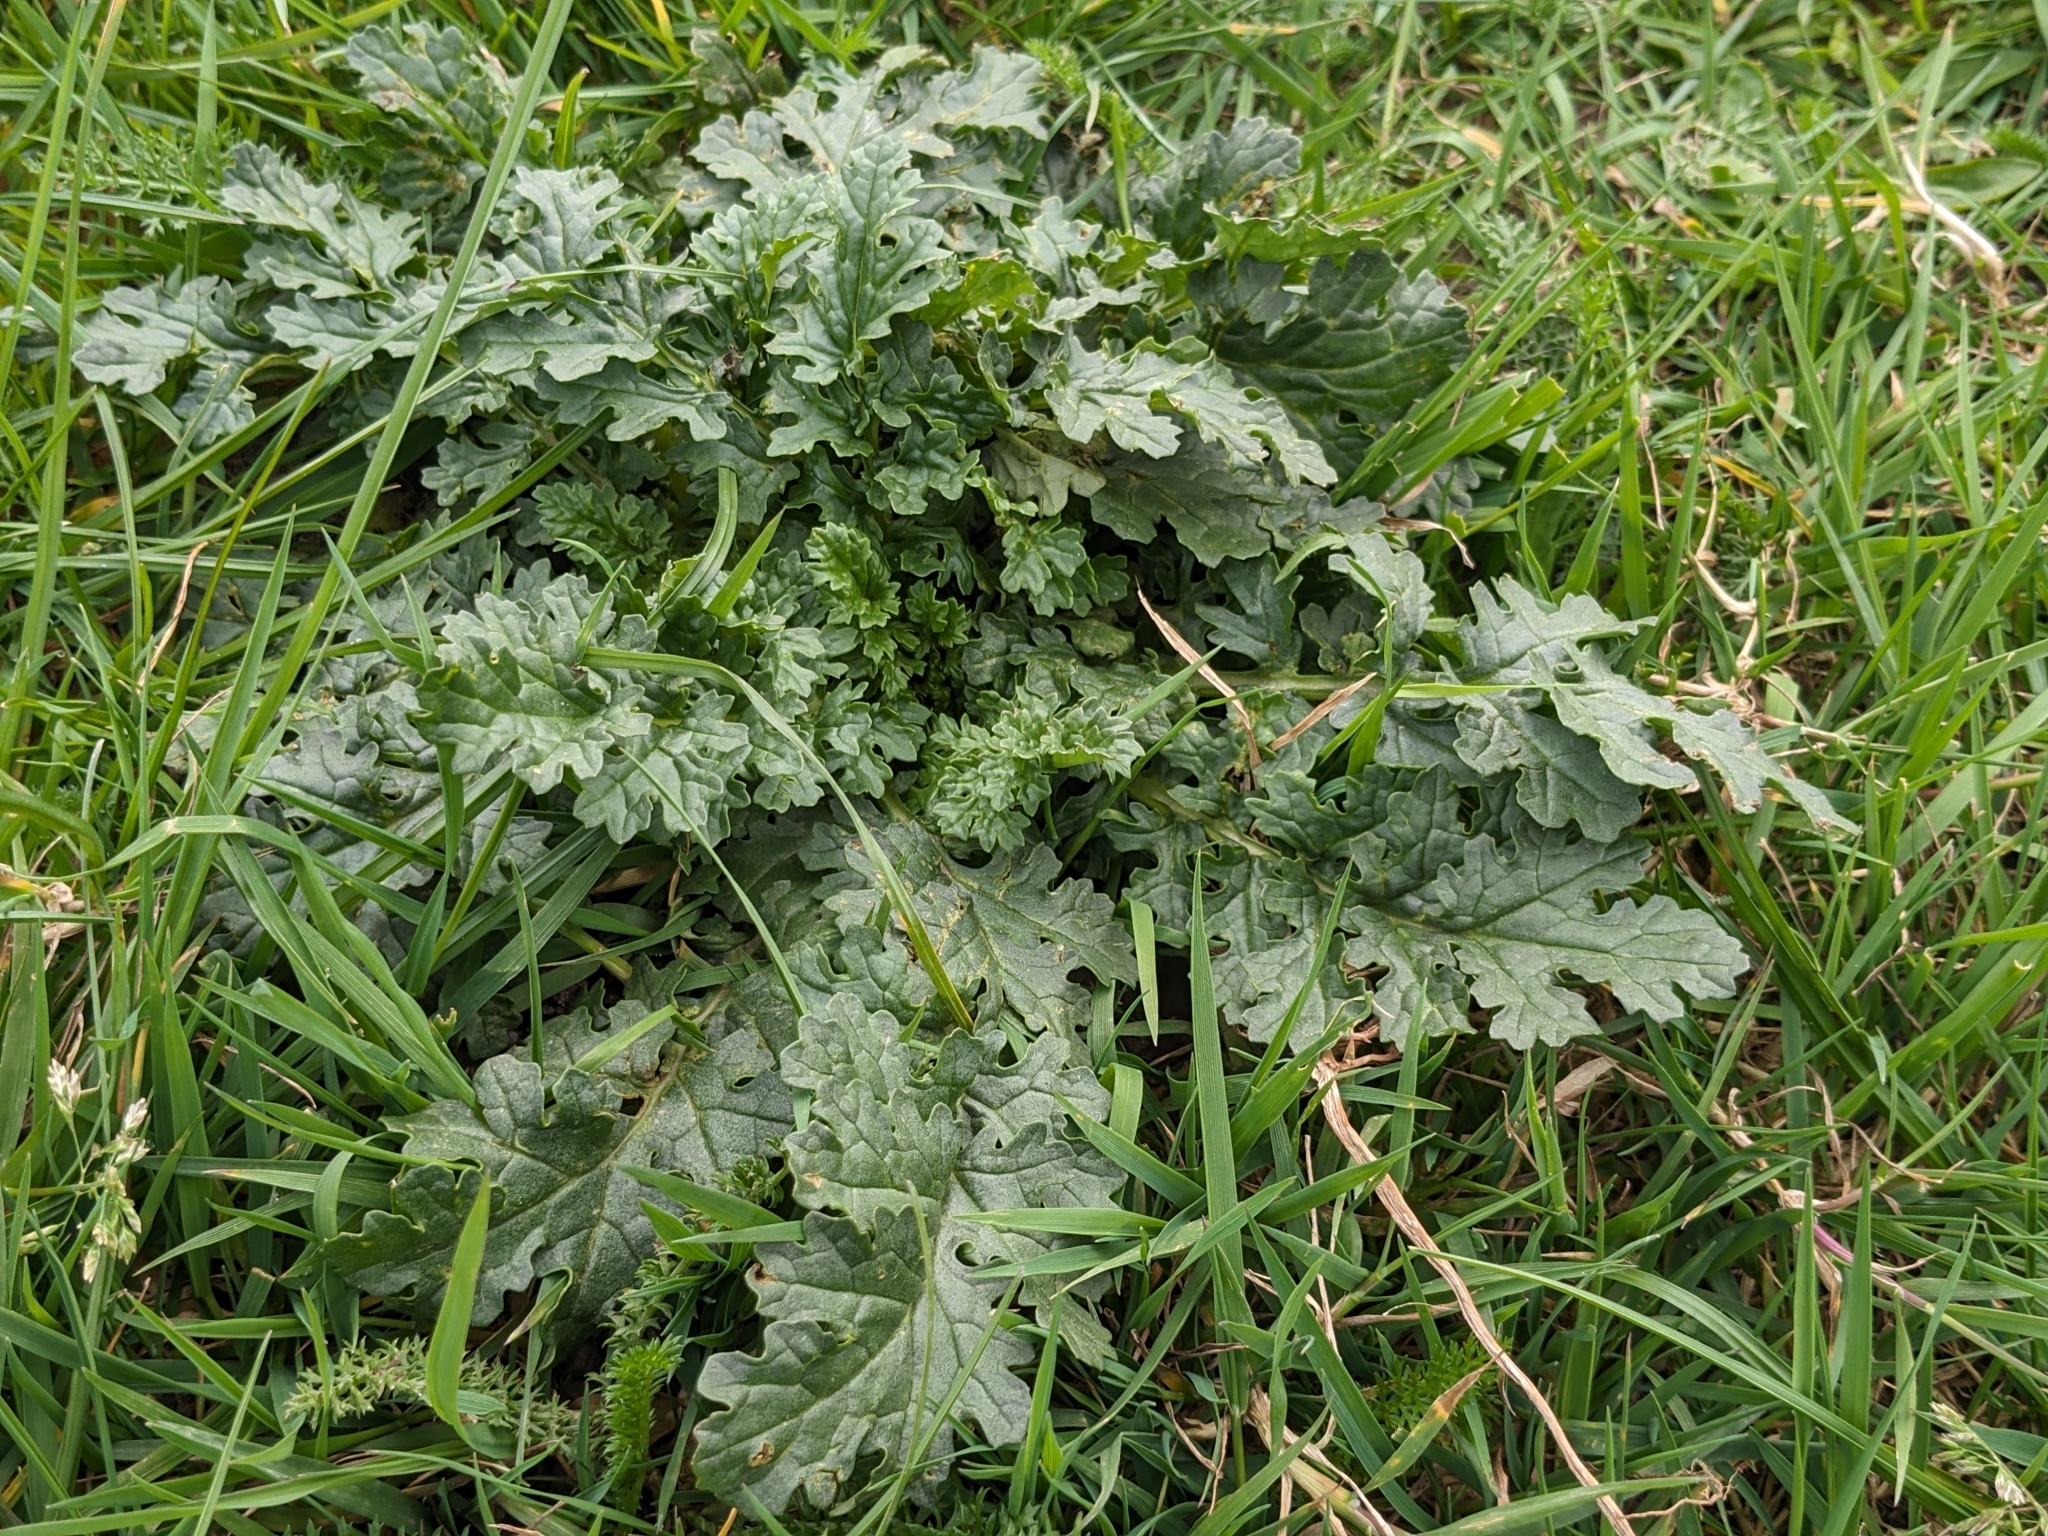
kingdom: Plantae
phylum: Tracheophyta
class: Magnoliopsida
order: Asterales
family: Asteraceae
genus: Jacobaea
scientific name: Jacobaea vulgaris
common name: Stinking willie
